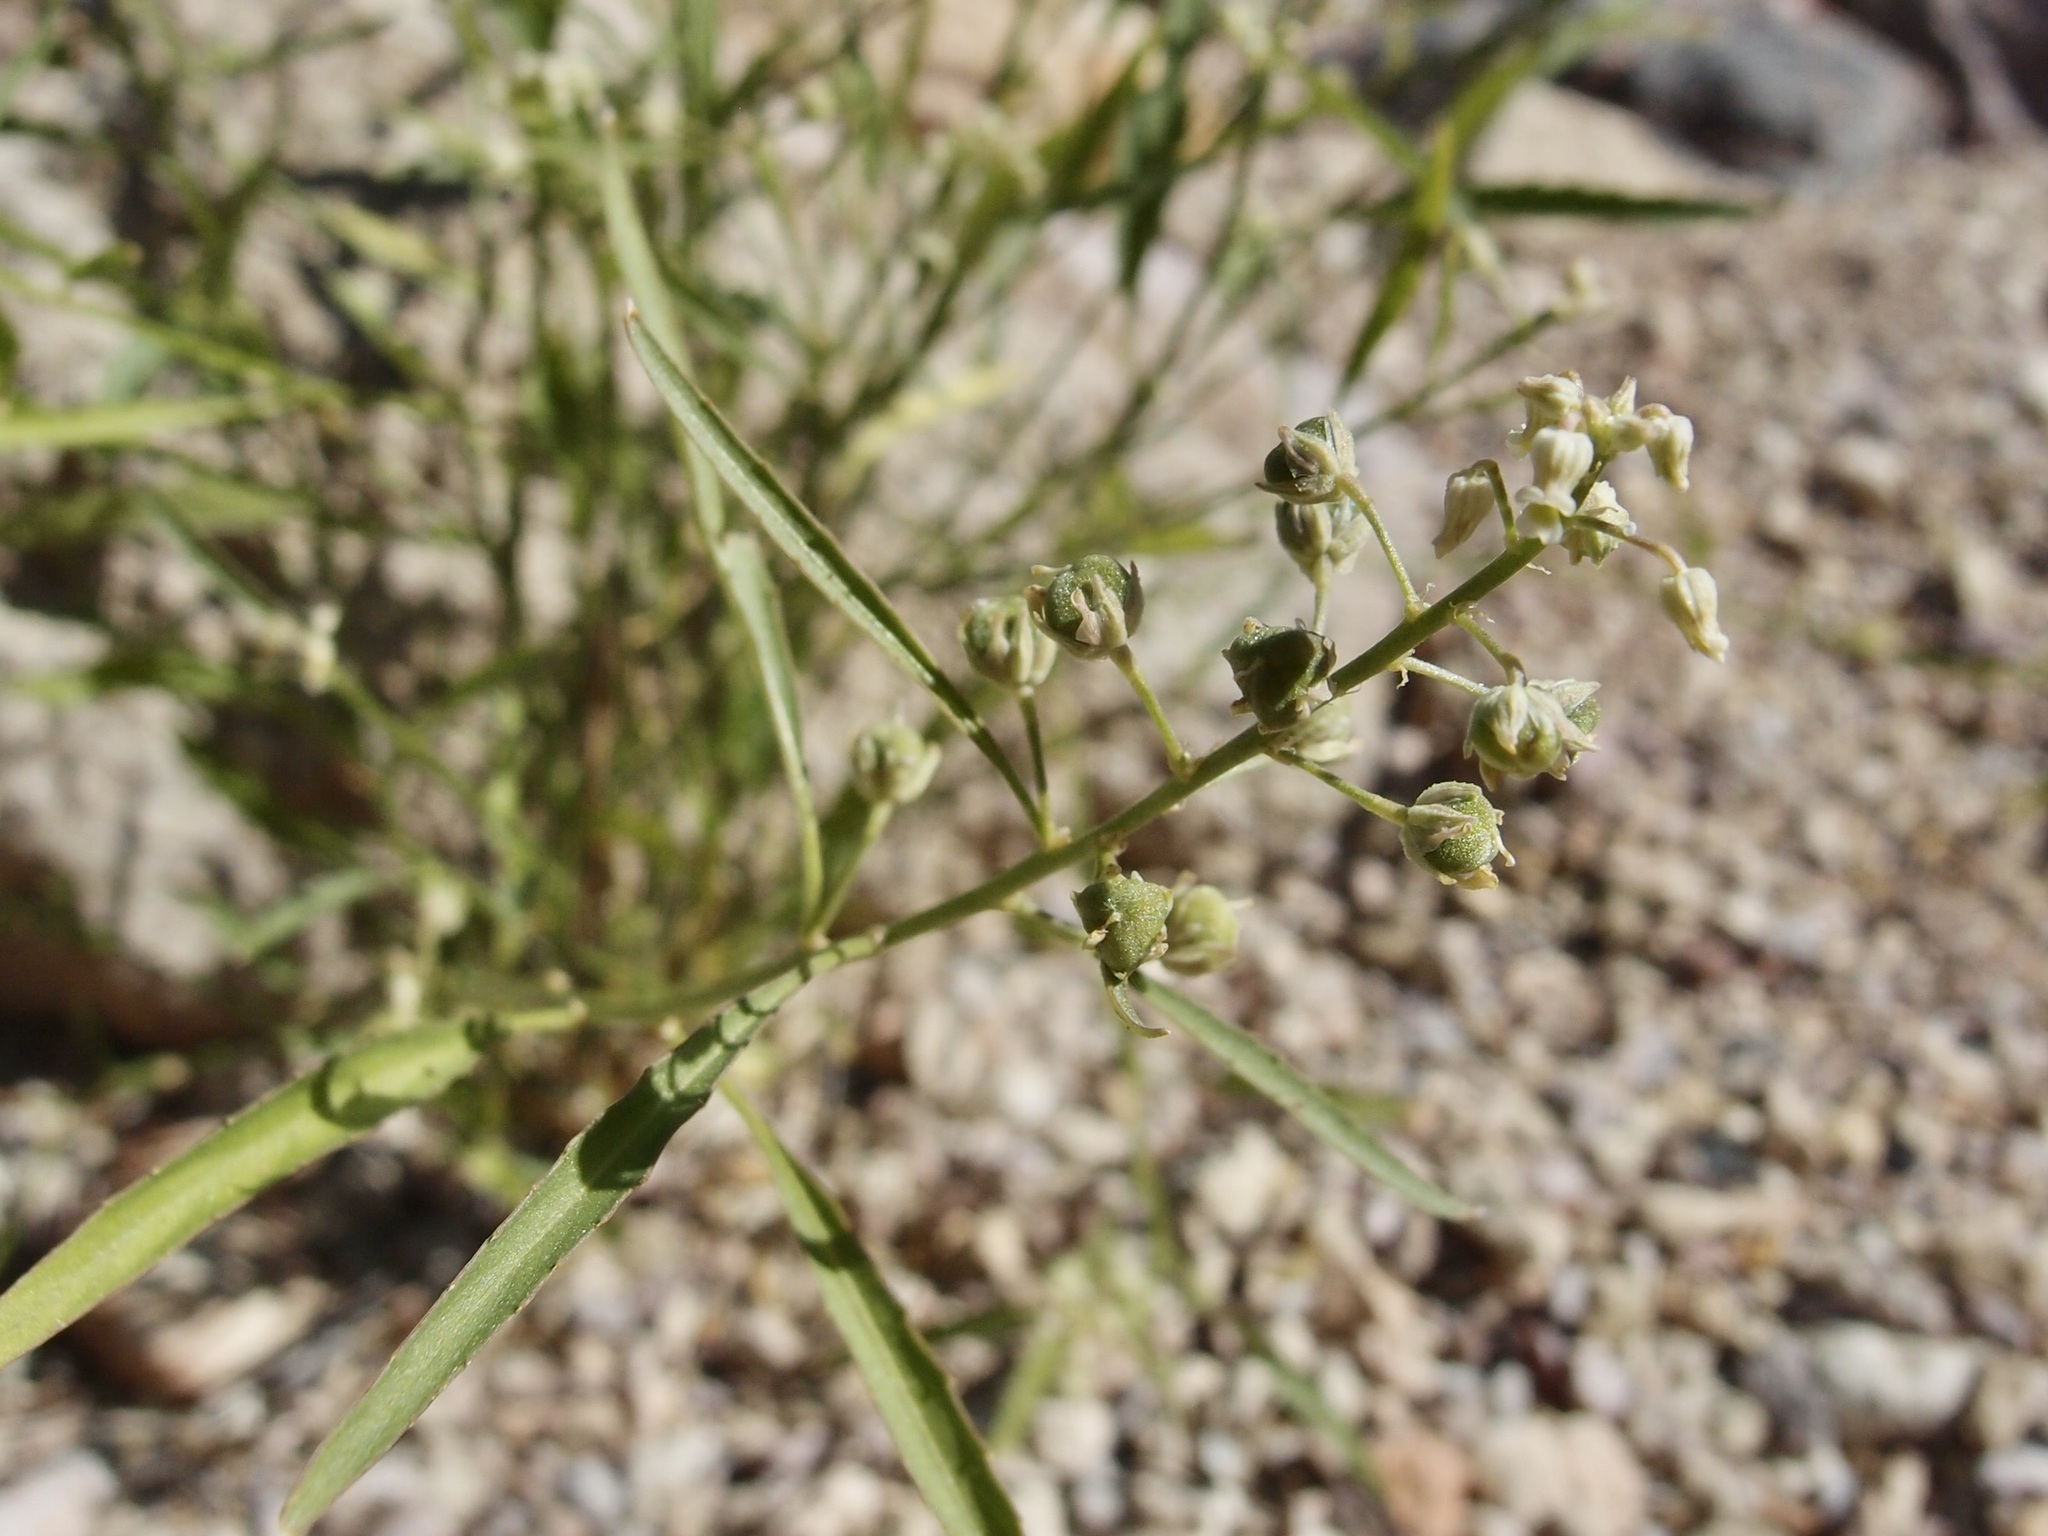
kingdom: Plantae
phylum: Tracheophyta
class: Magnoliopsida
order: Malpighiales
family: Violaceae
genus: Hybanthus
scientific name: Hybanthus fruticulosus
